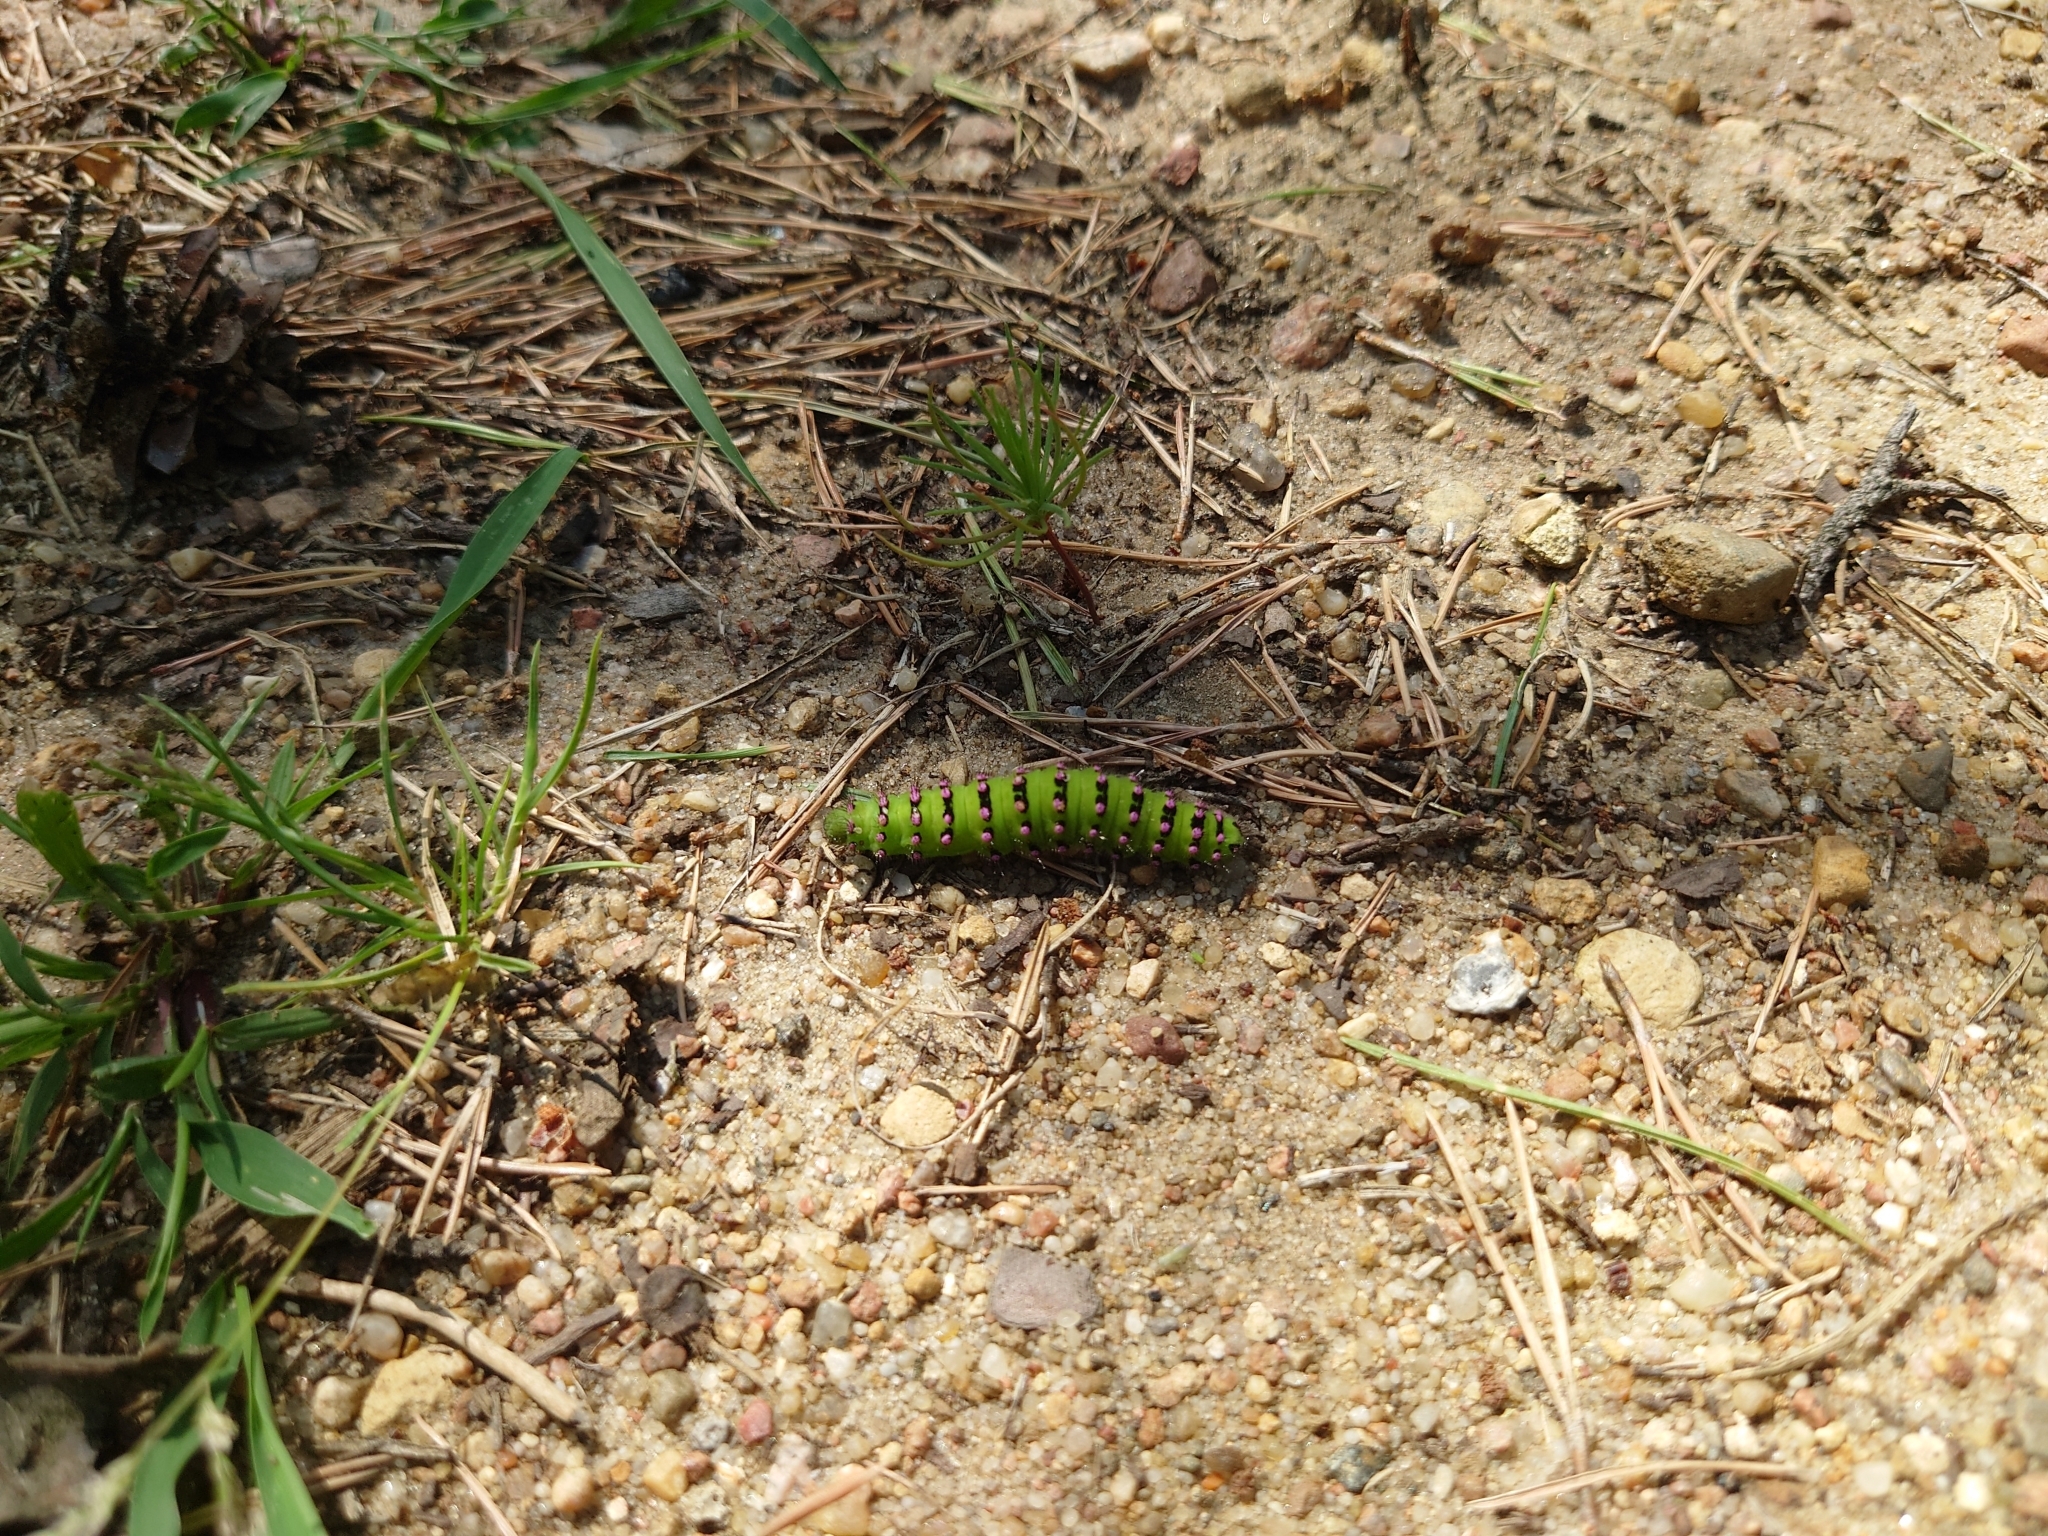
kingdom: Animalia
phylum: Arthropoda
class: Insecta
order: Lepidoptera
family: Saturniidae
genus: Saturnia
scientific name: Saturnia pavonia
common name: Emperor moth
